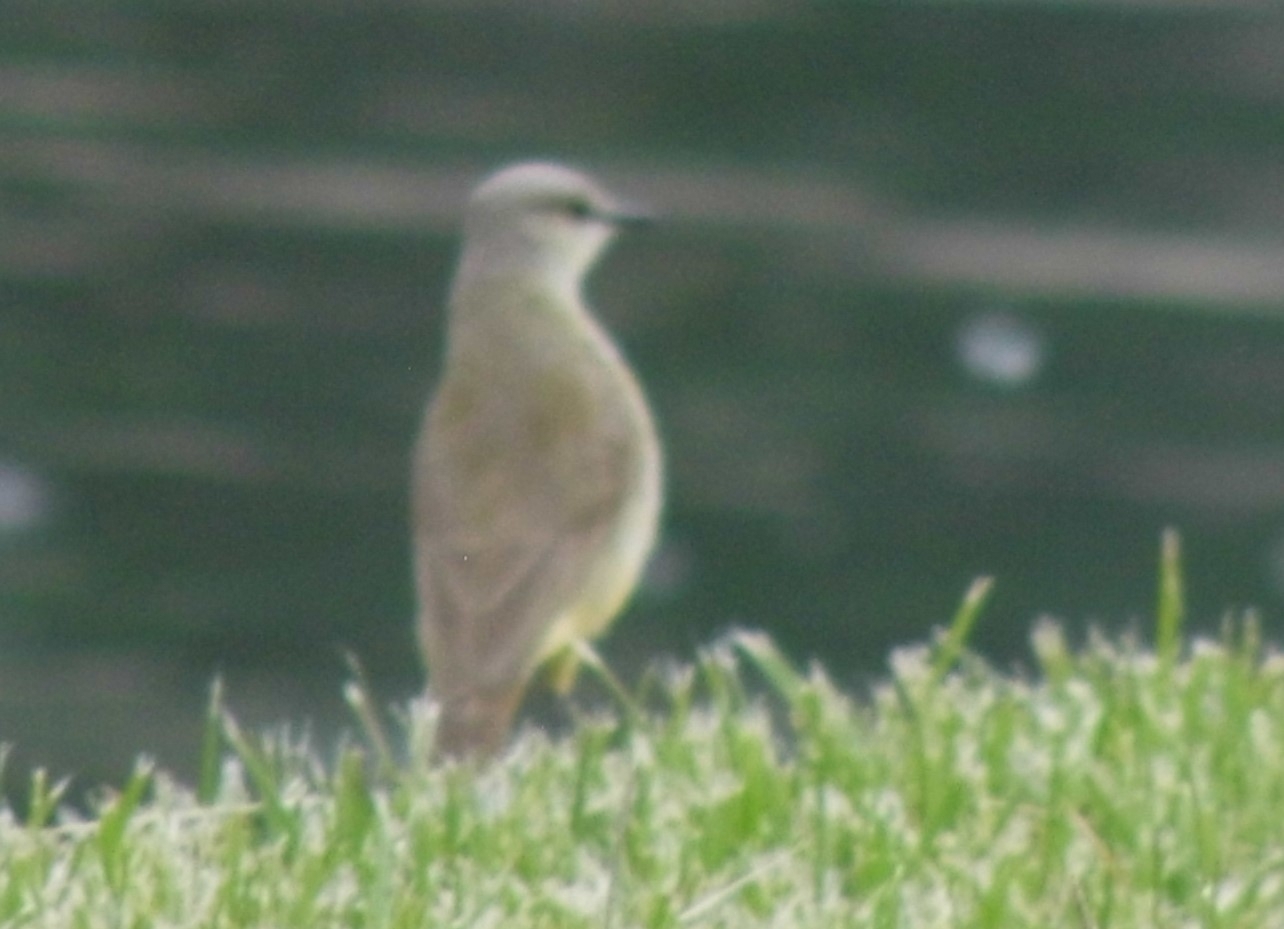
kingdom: Animalia
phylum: Chordata
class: Aves
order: Passeriformes
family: Tyrannidae
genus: Machetornis
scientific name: Machetornis rixosa
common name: Cattle tyrant
